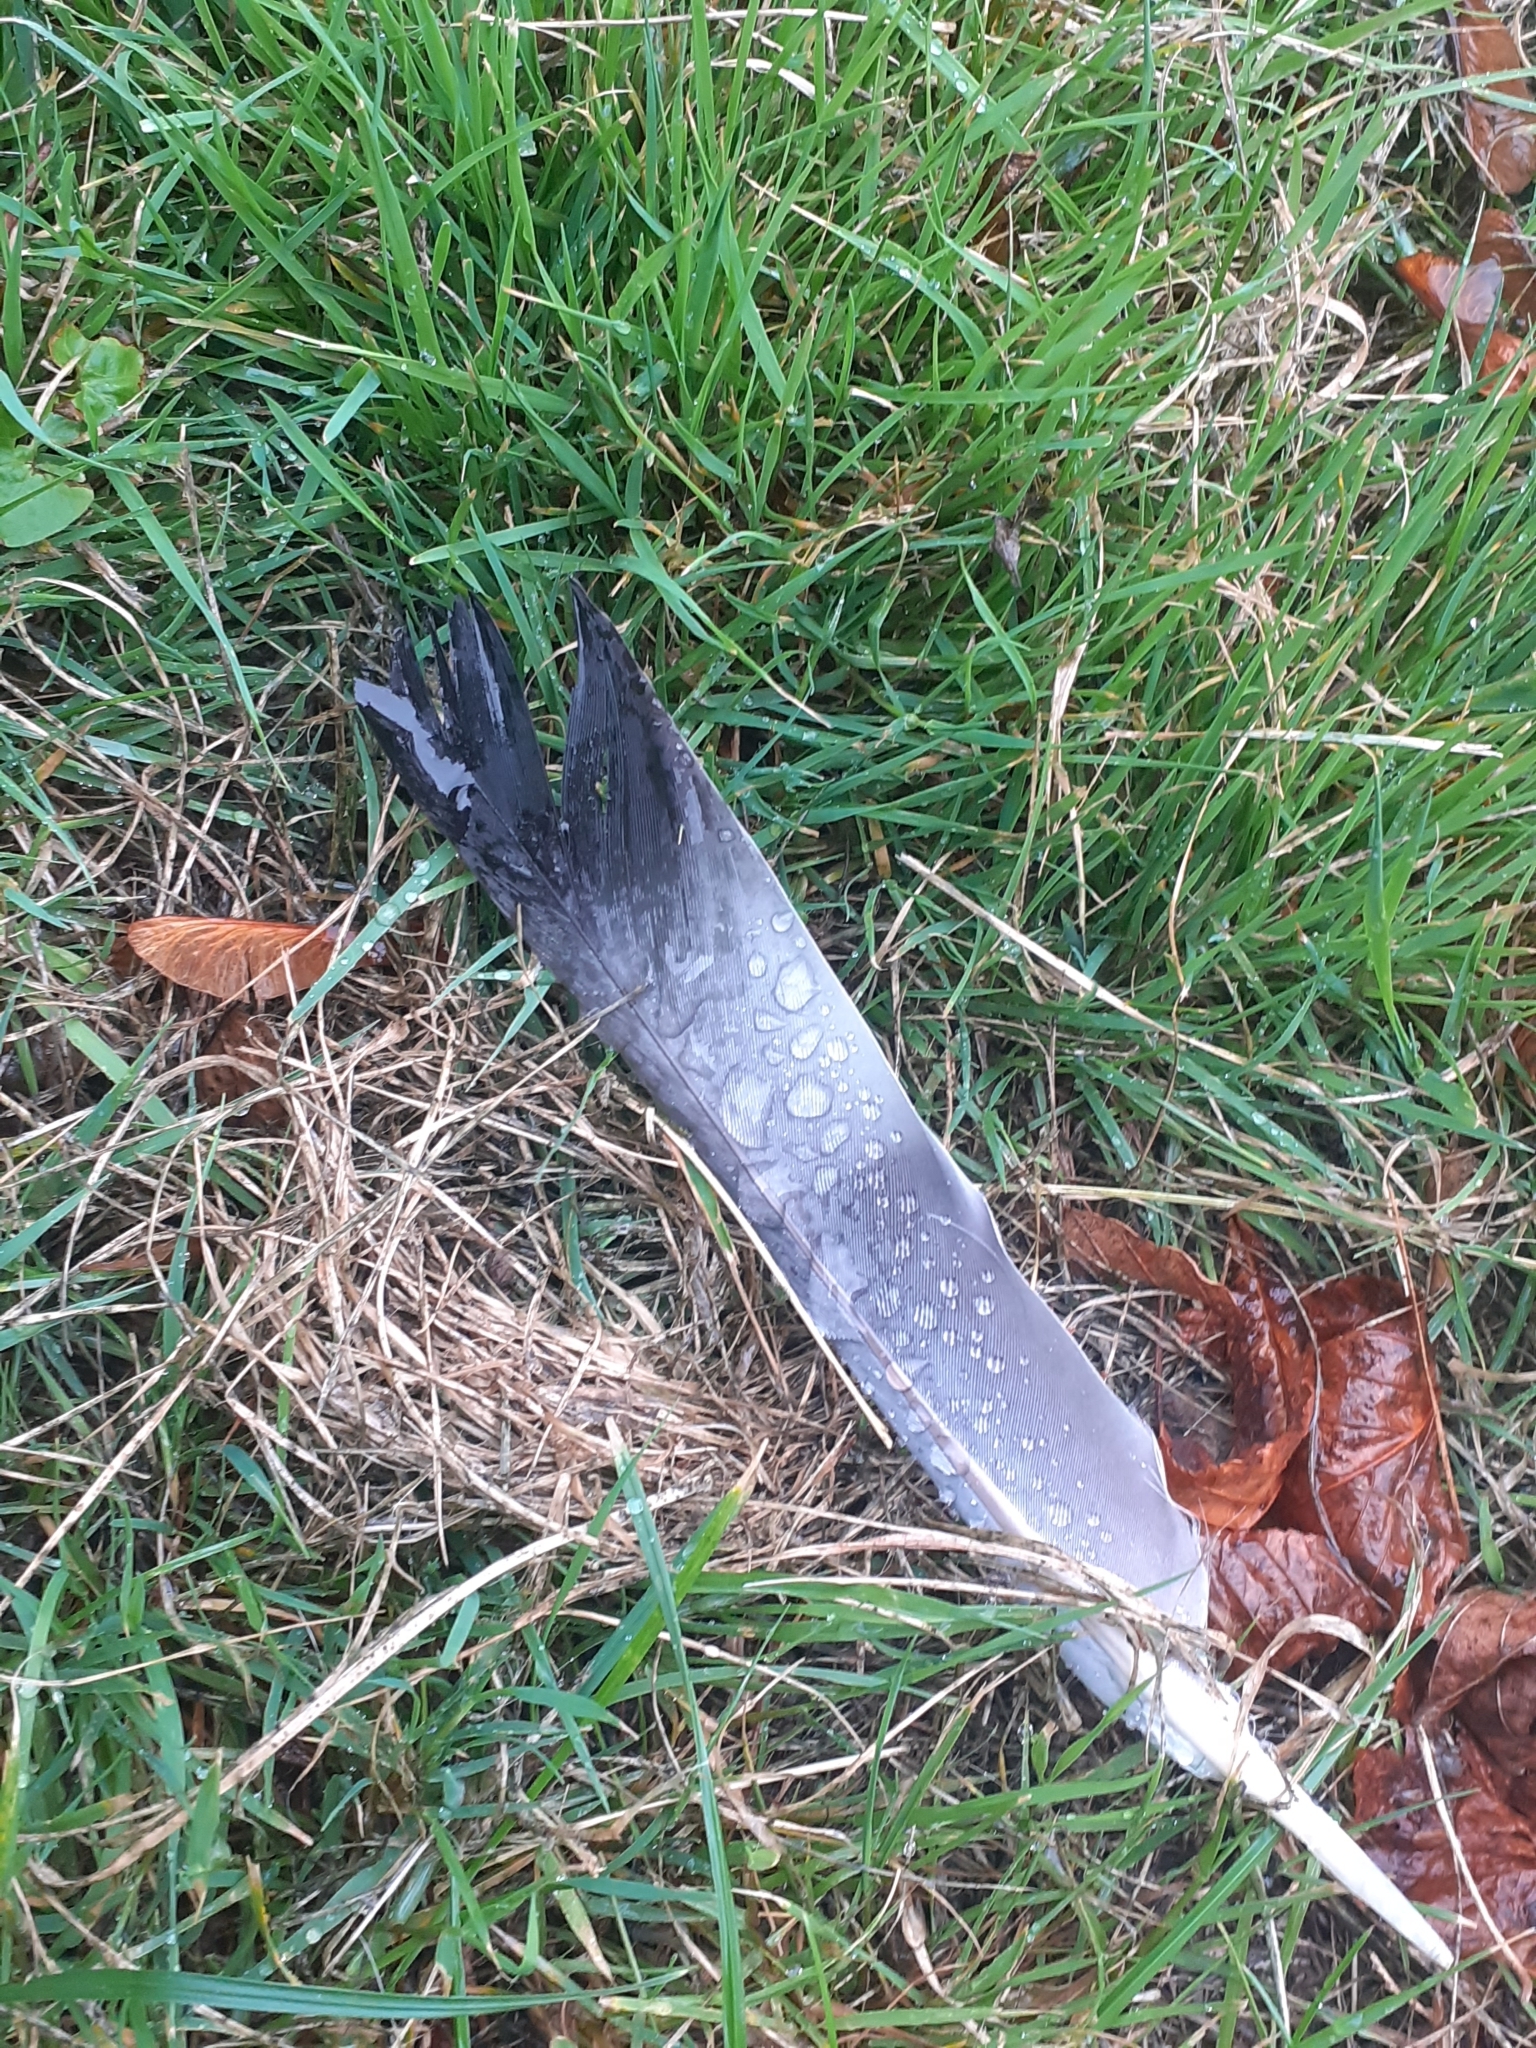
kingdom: Animalia
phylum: Chordata
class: Aves
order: Columbiformes
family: Columbidae
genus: Columba
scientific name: Columba palumbus
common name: Common wood pigeon
